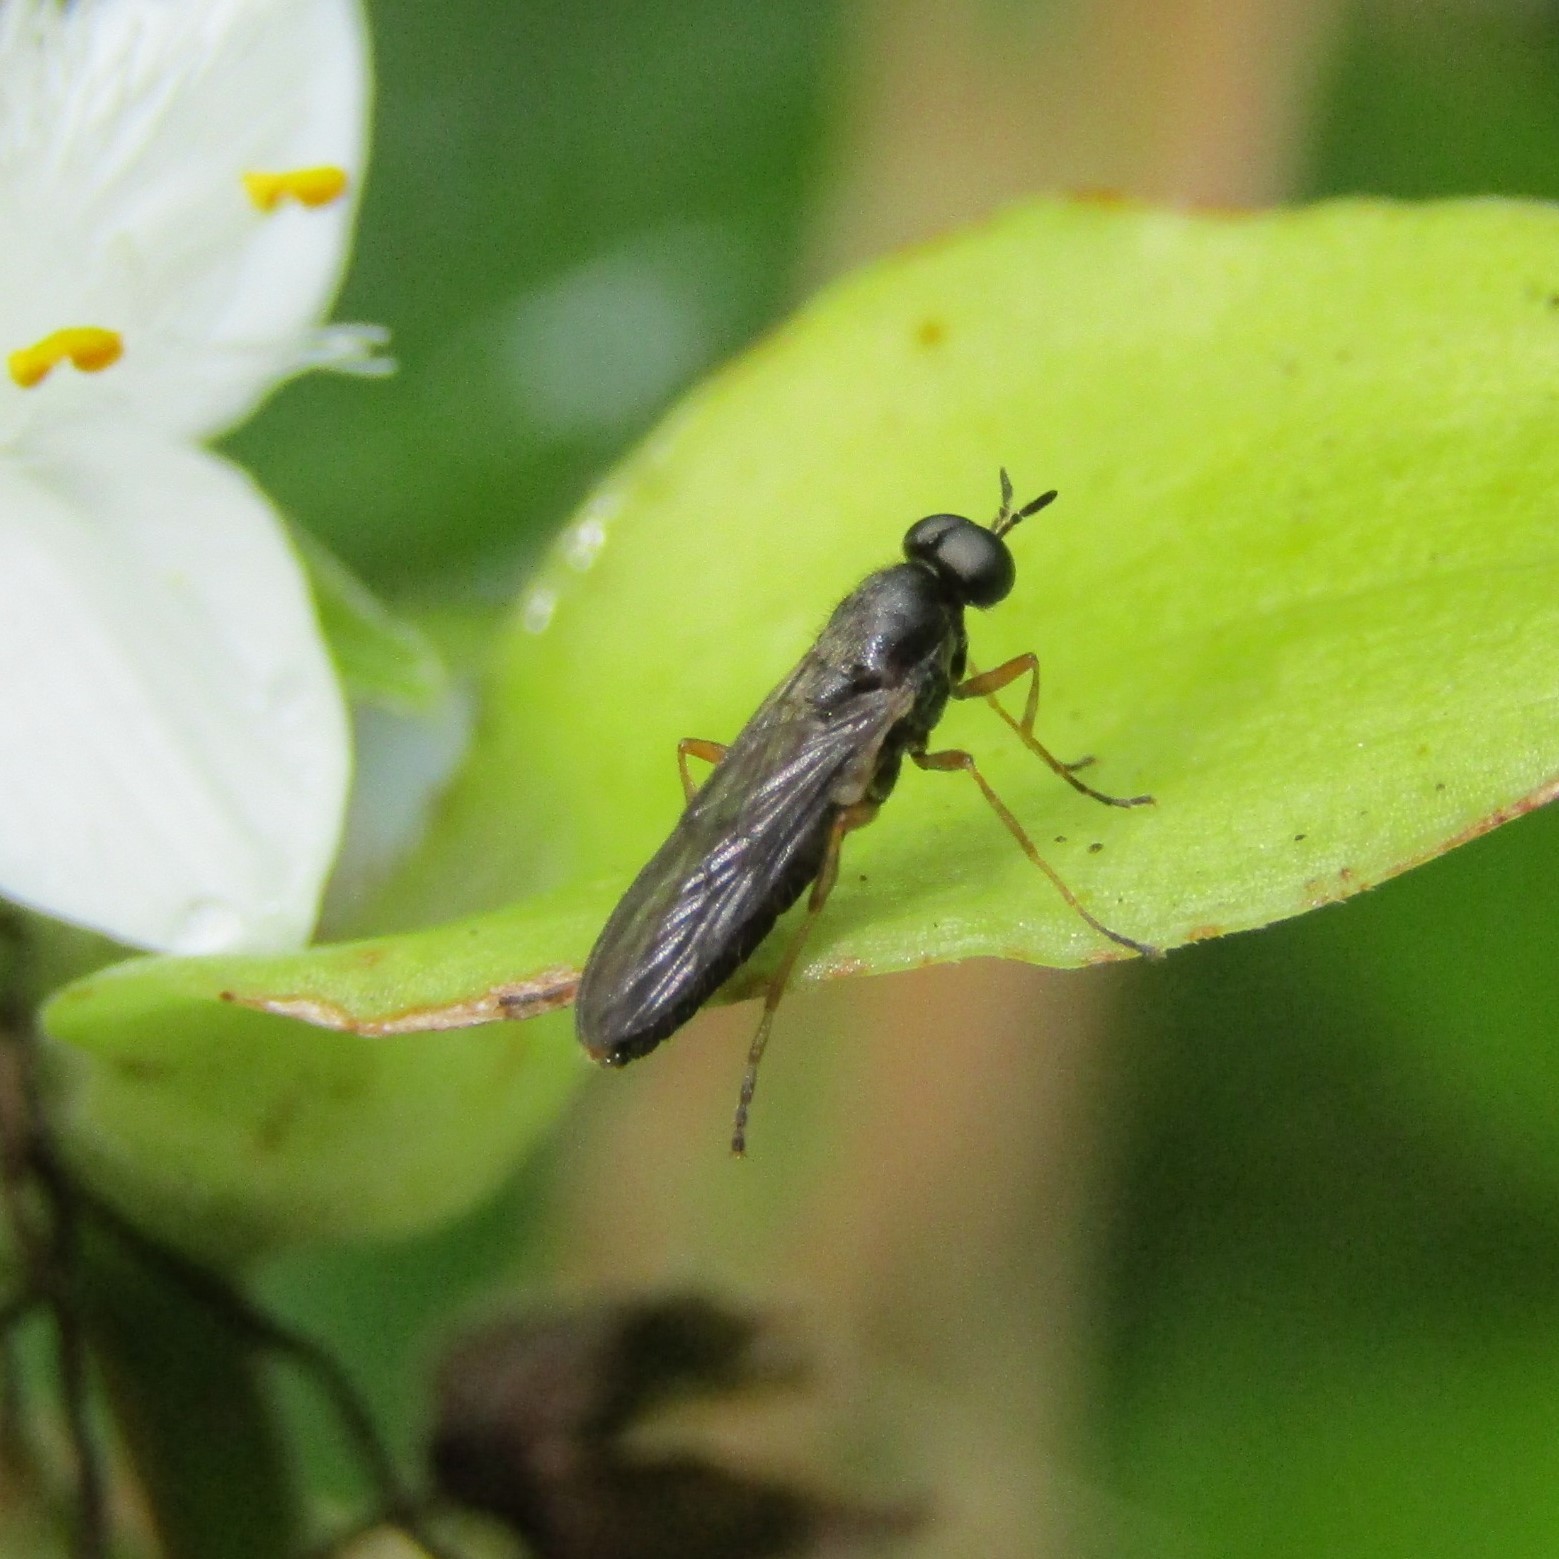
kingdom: Animalia
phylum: Arthropoda
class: Insecta
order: Diptera
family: Stratiomyidae
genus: Inopus
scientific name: Inopus rubriceps
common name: Soldier fly
